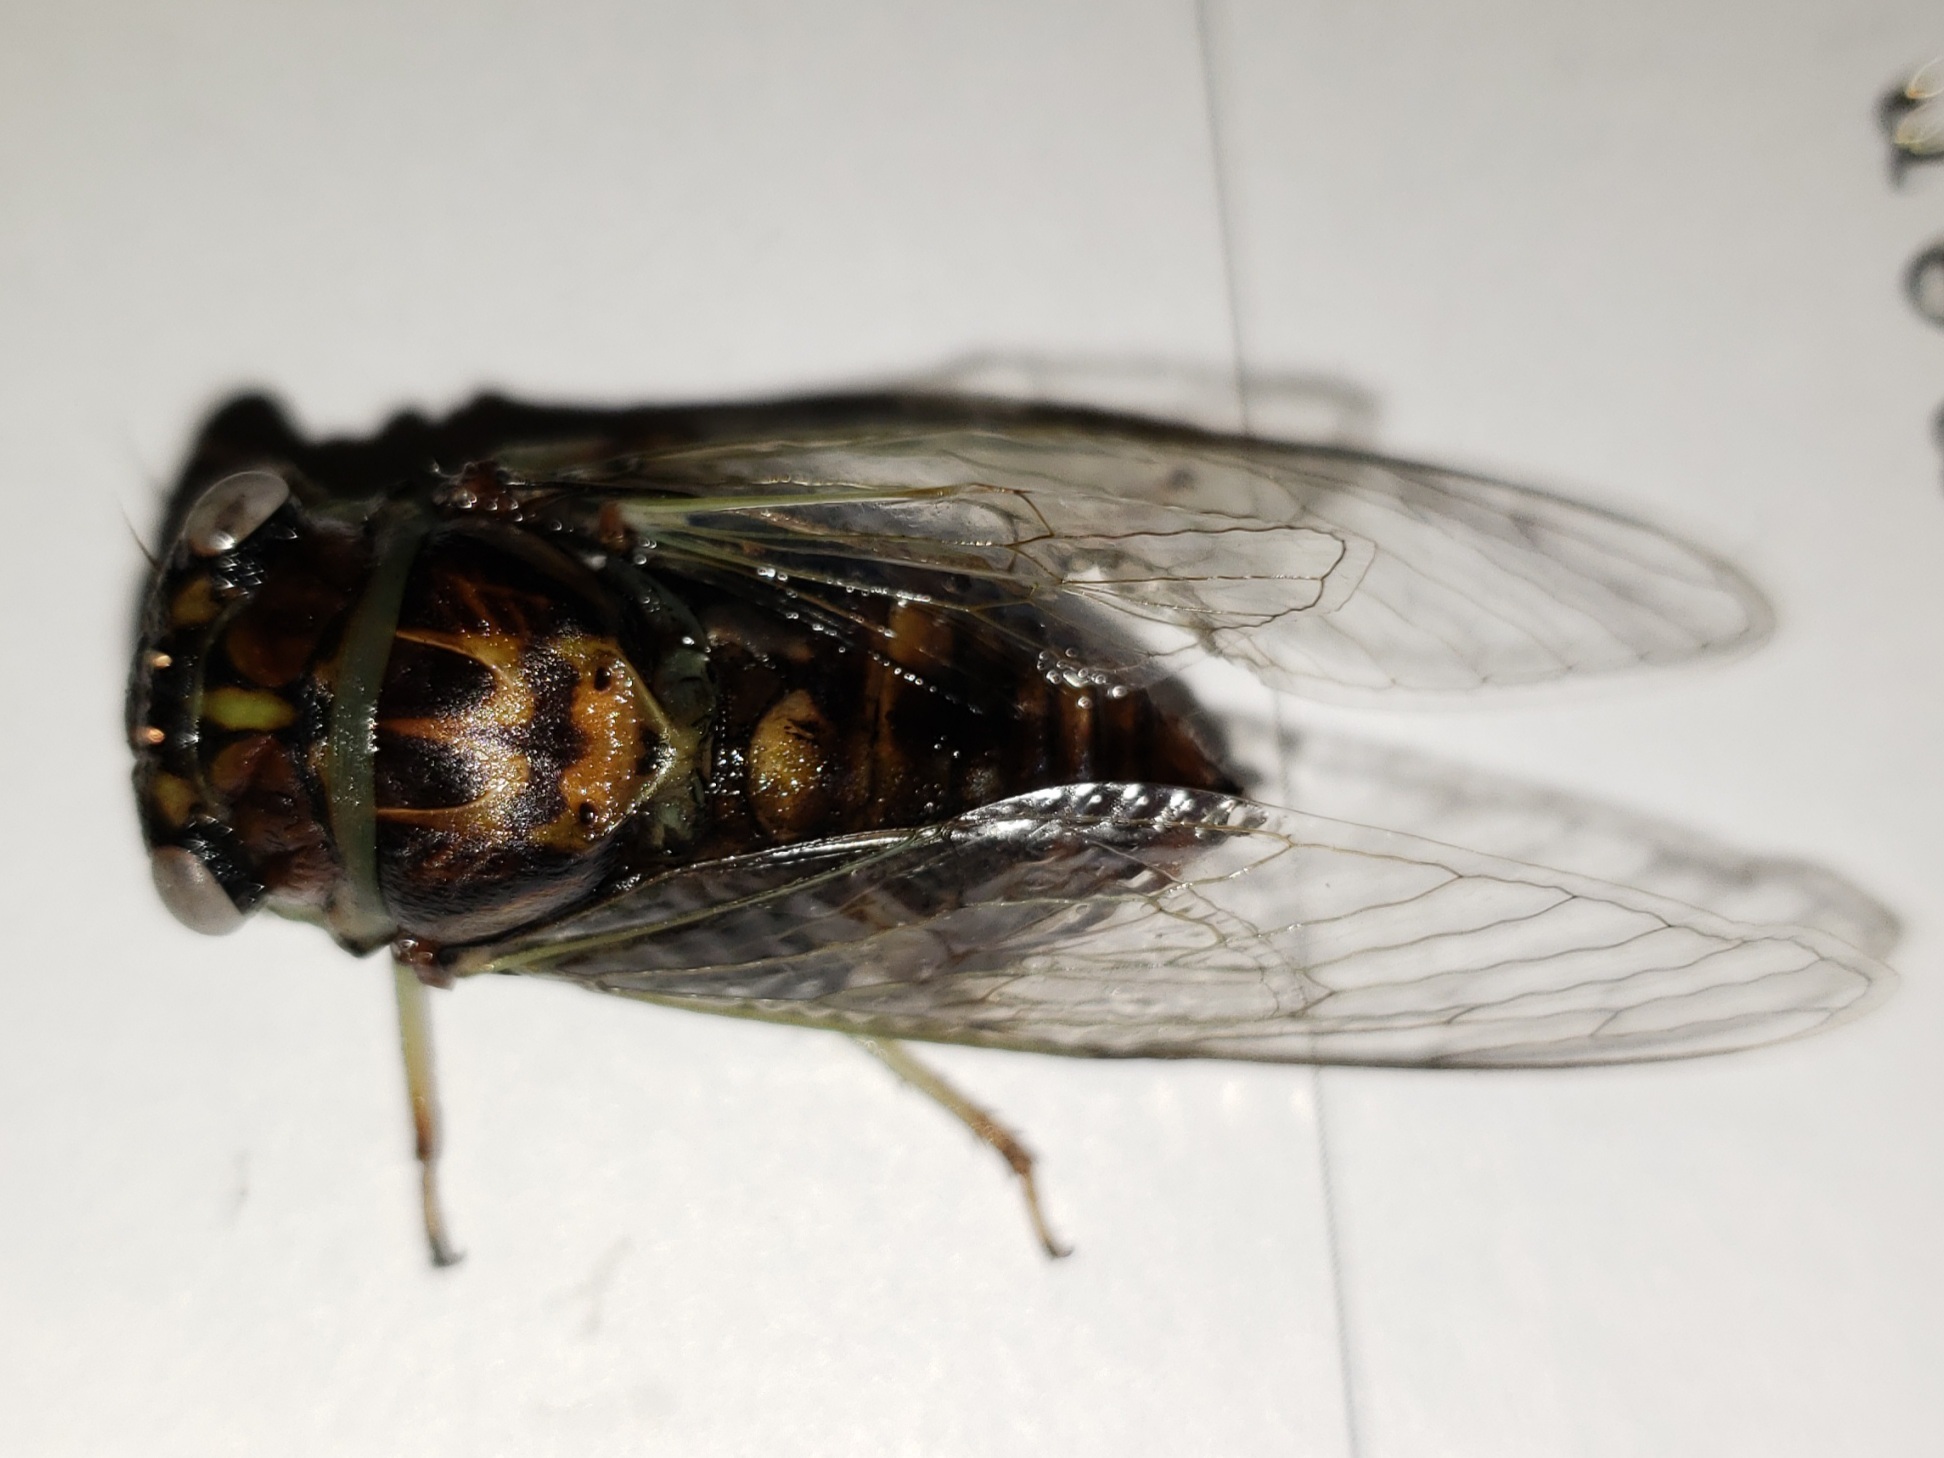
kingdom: Animalia
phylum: Arthropoda
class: Insecta
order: Hemiptera
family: Cicadidae
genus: Diceroprocta
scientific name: Diceroprocta viridifascia
